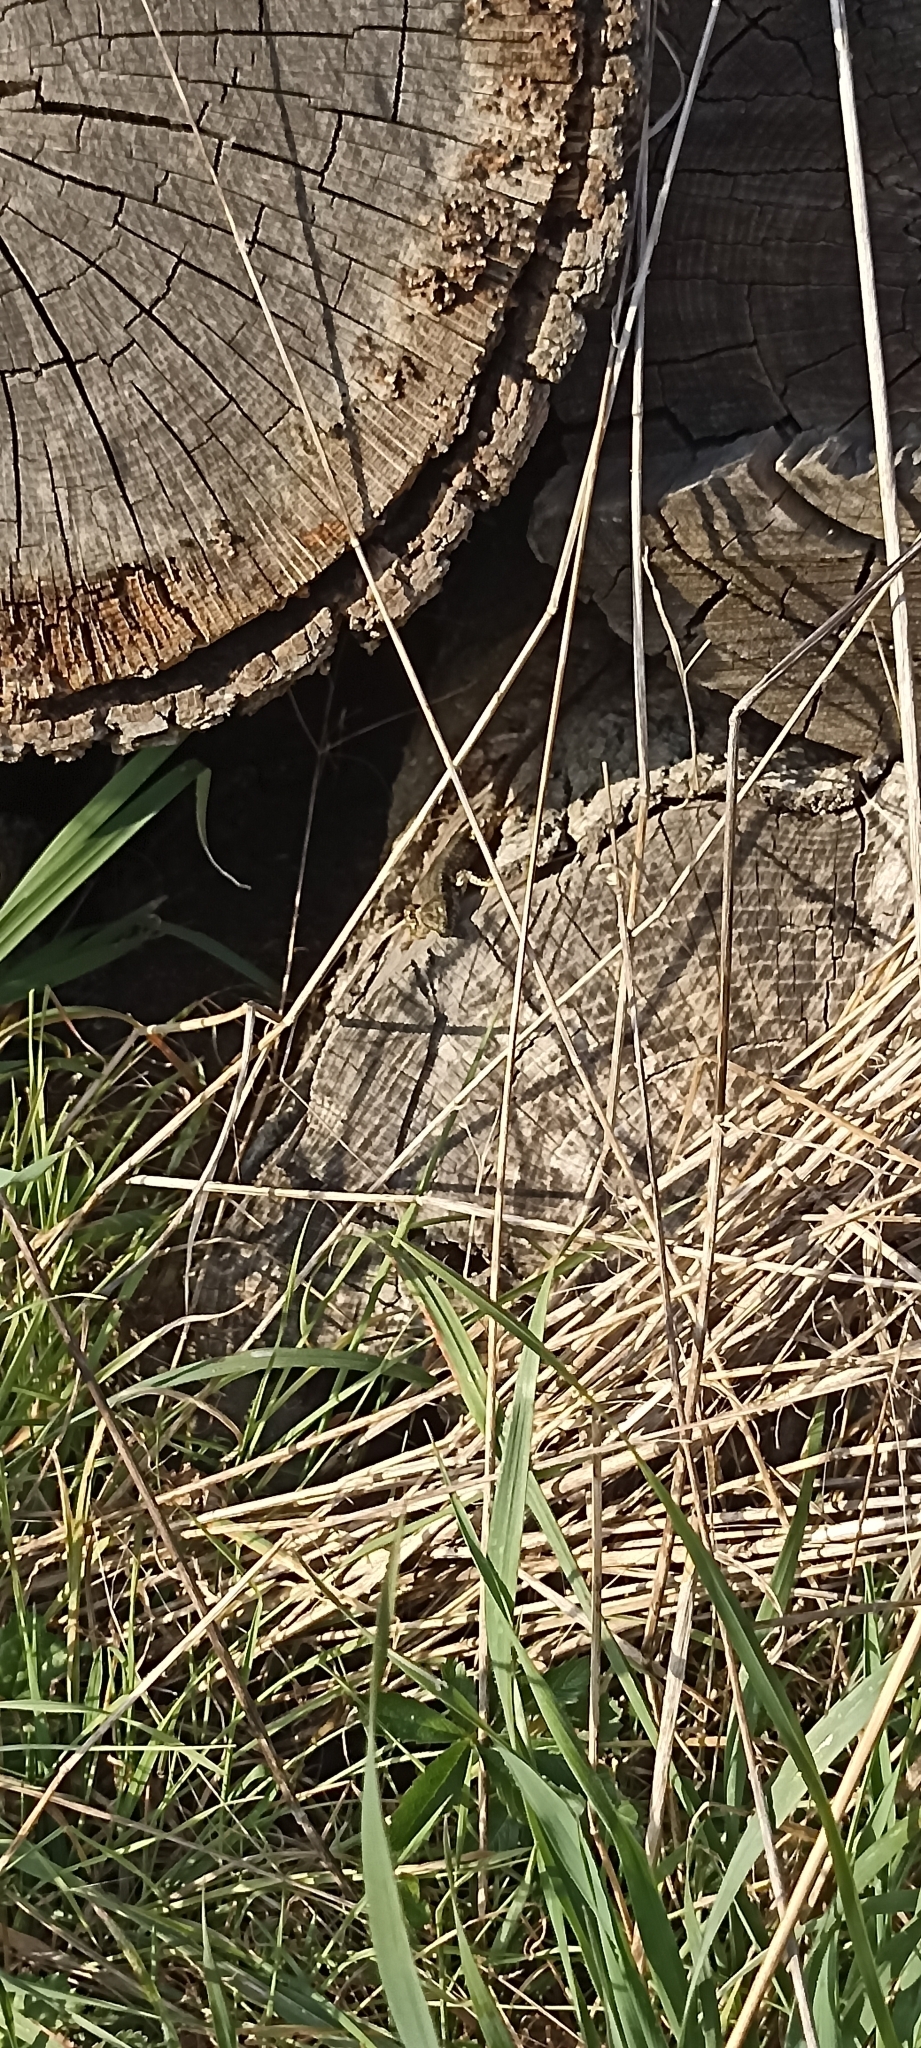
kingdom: Animalia
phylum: Chordata
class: Squamata
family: Lacertidae
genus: Podarcis
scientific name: Podarcis muralis
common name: Common wall lizard
